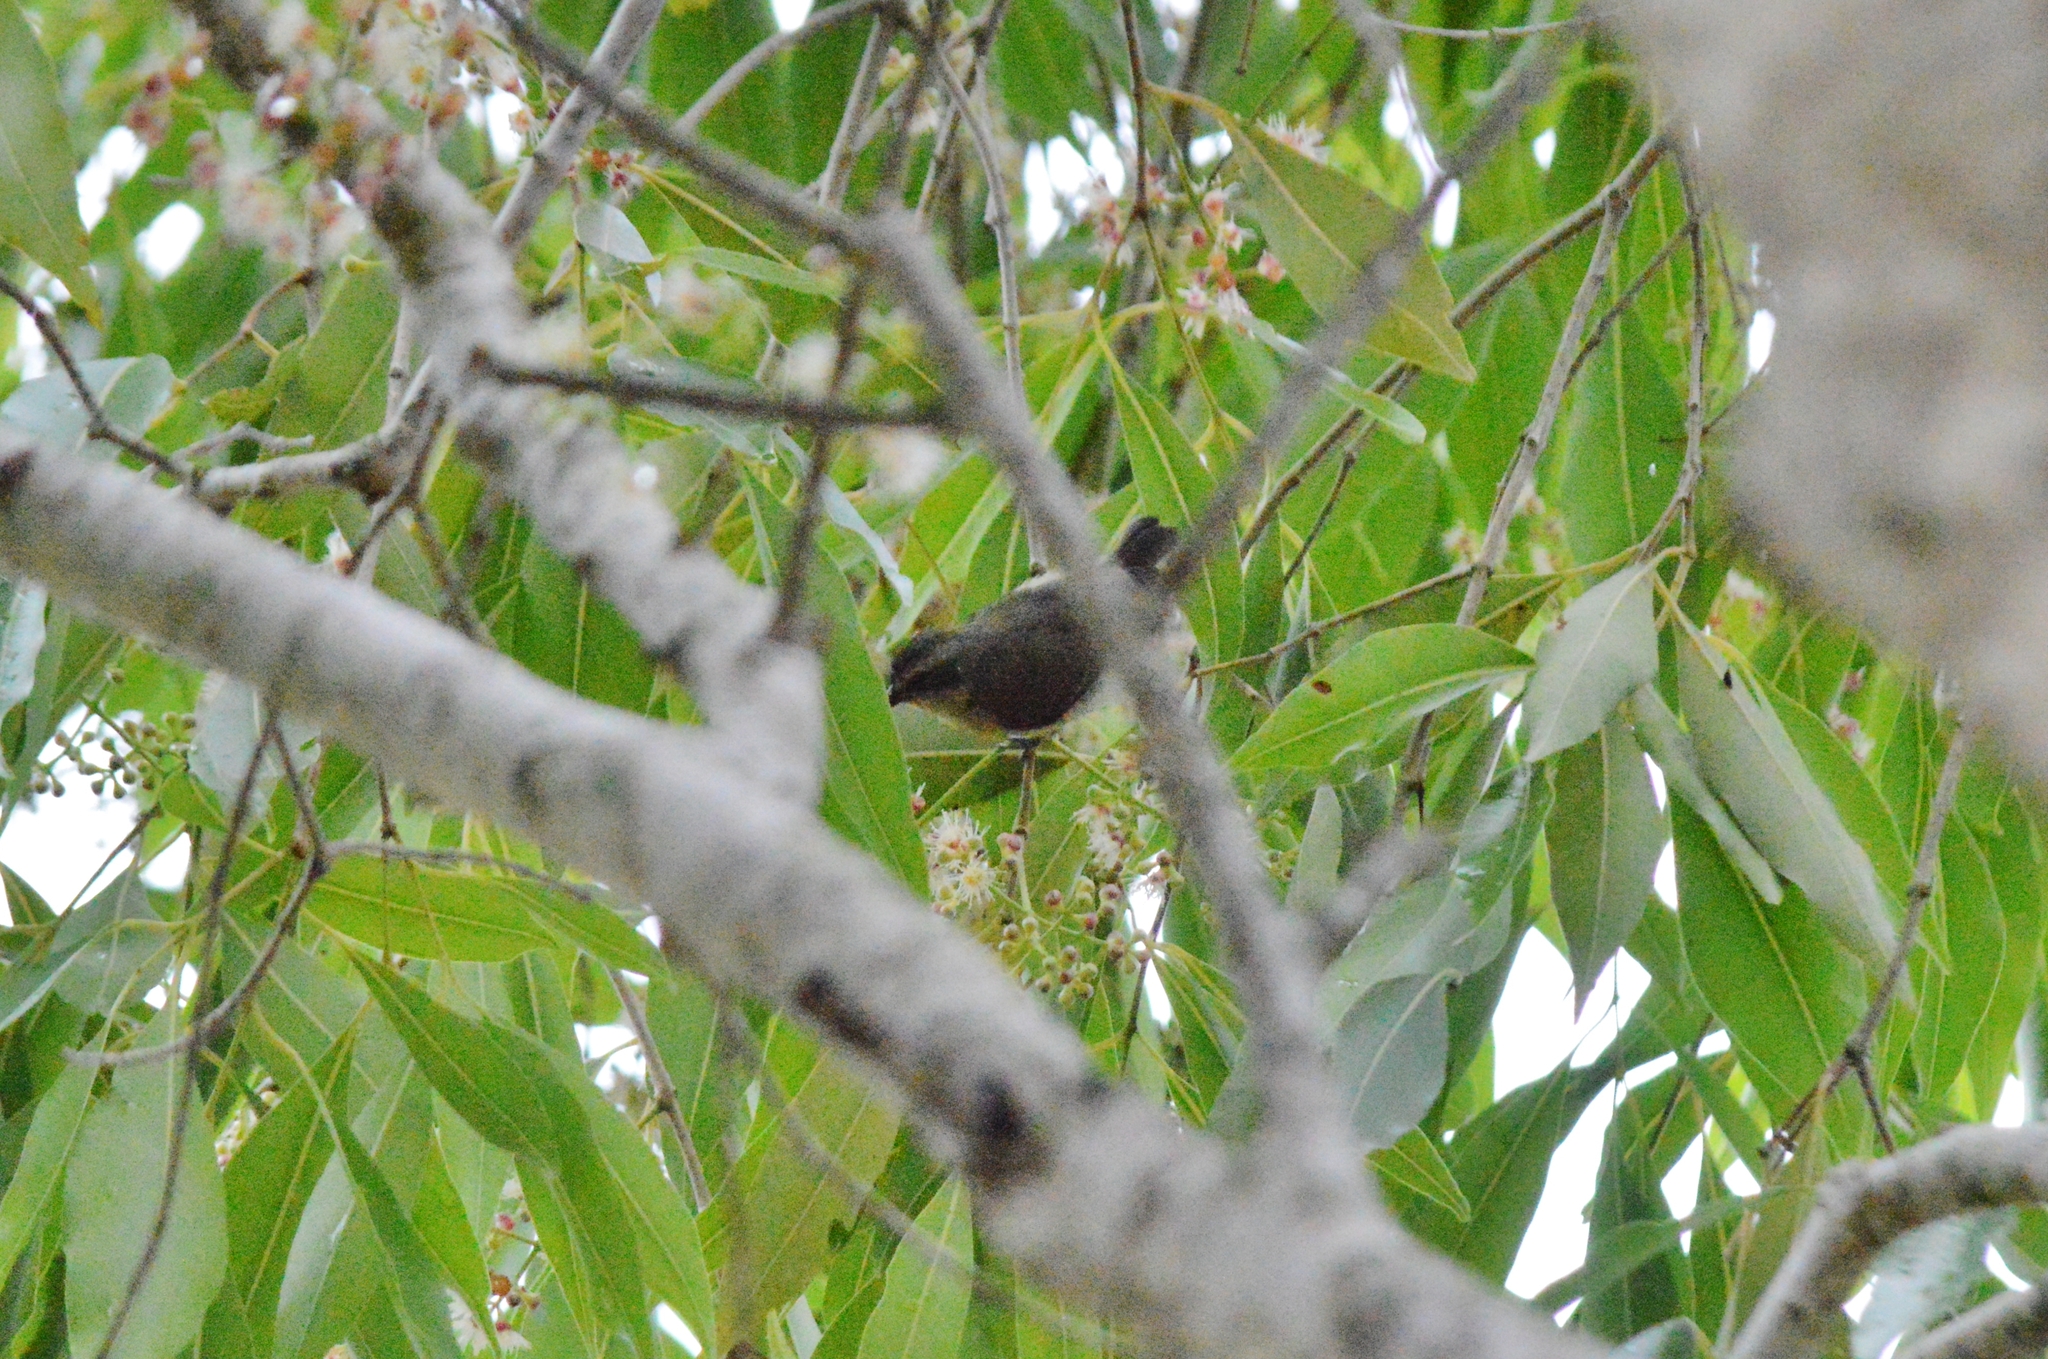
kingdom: Animalia
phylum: Chordata
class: Aves
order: Passeriformes
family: Thraupidae
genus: Coereba
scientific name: Coereba flaveola
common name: Bananaquit
